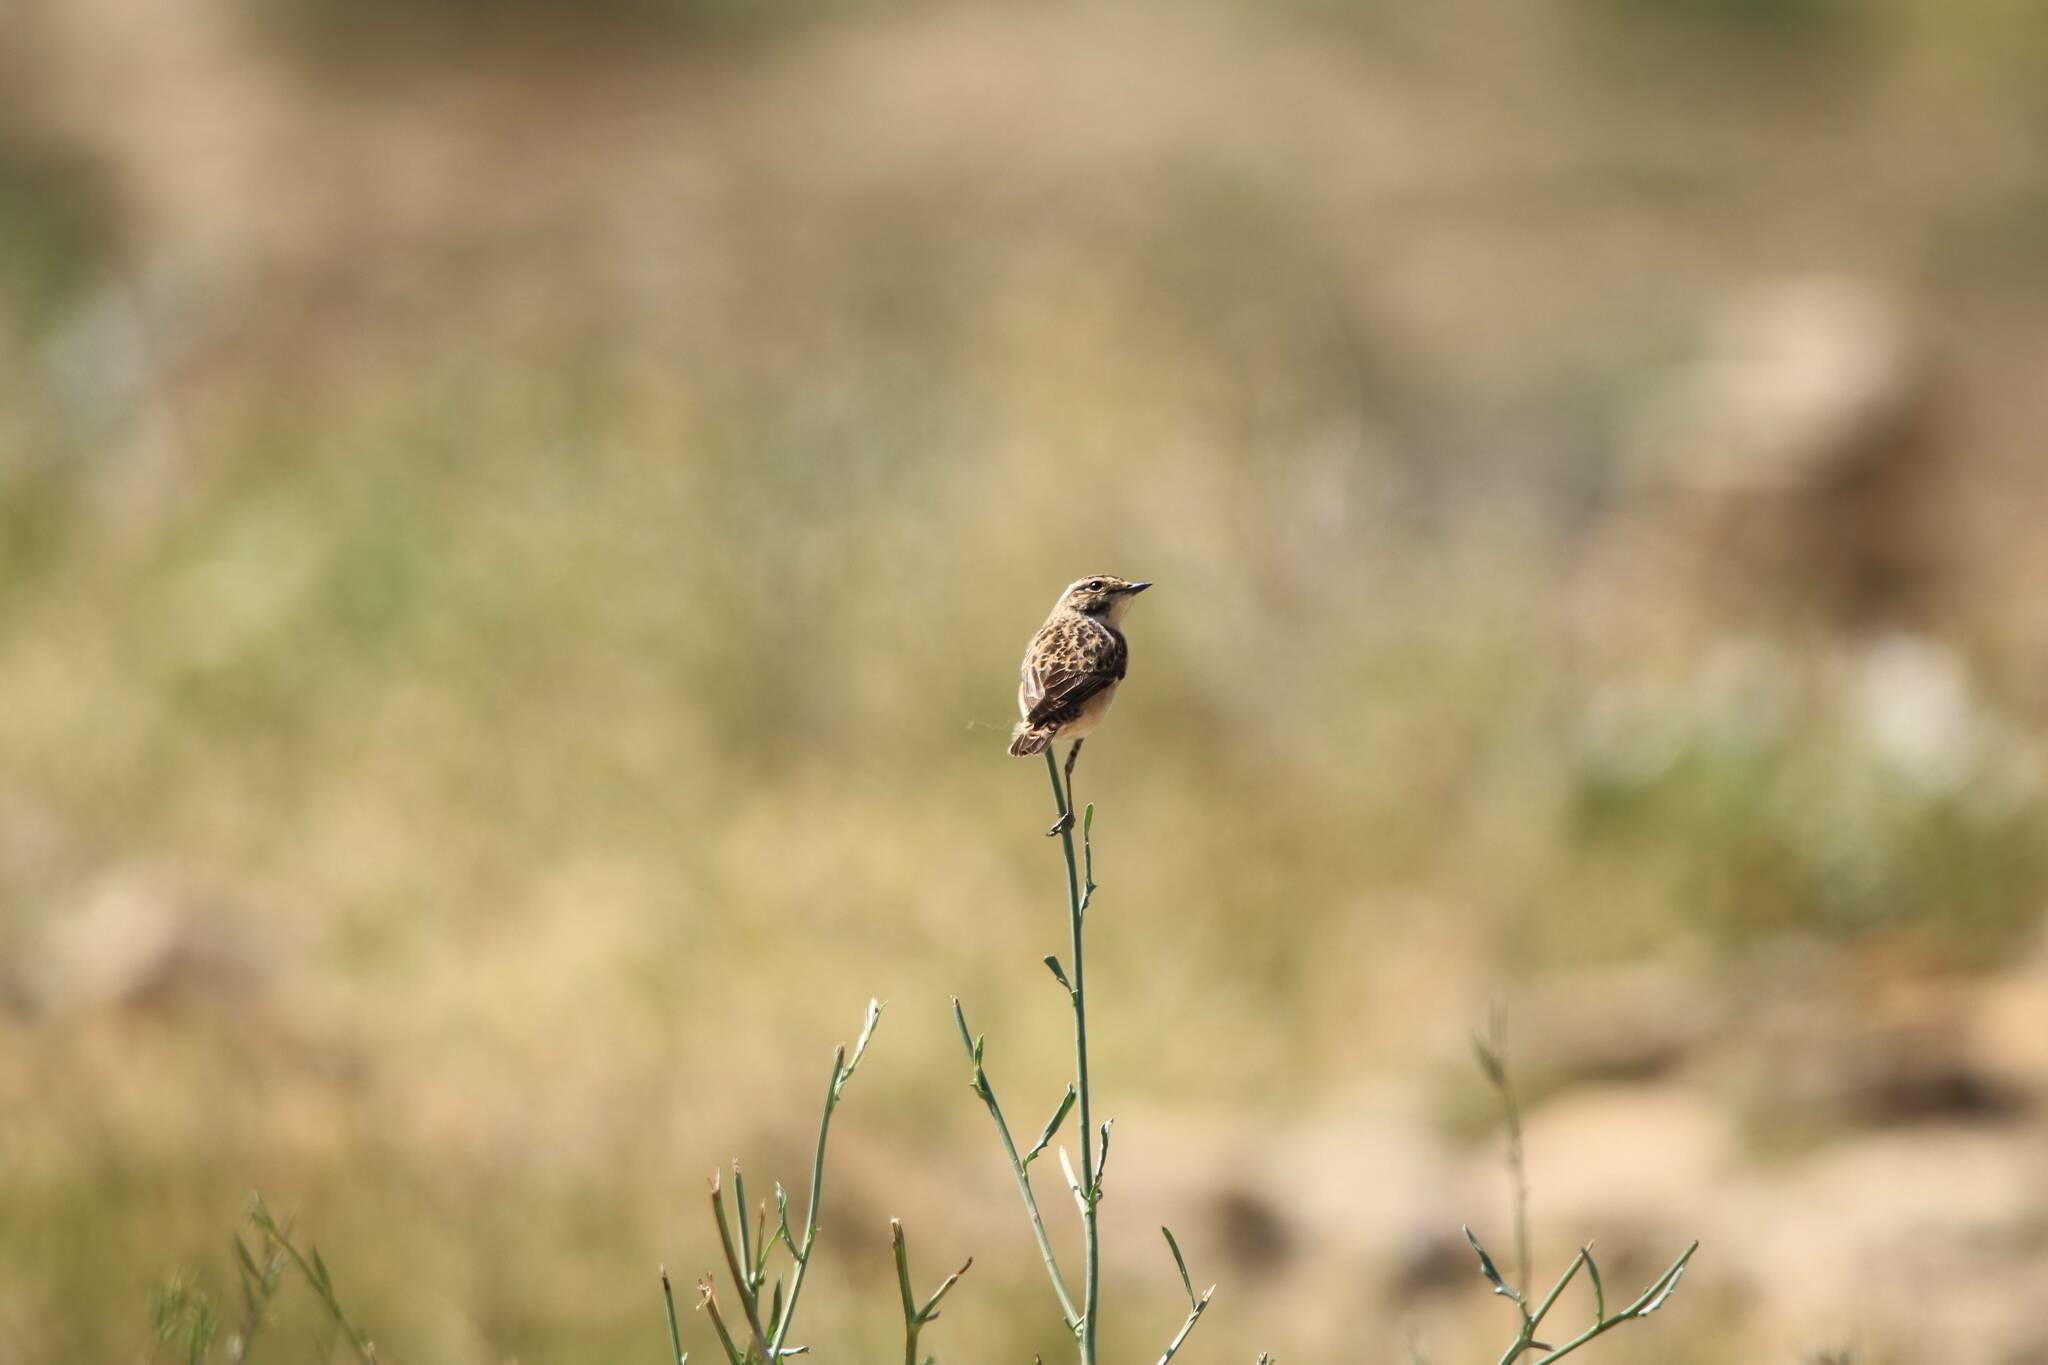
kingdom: Animalia
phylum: Chordata
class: Aves
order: Passeriformes
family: Muscicapidae
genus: Saxicola
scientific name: Saxicola rubetra
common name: Whinchat
